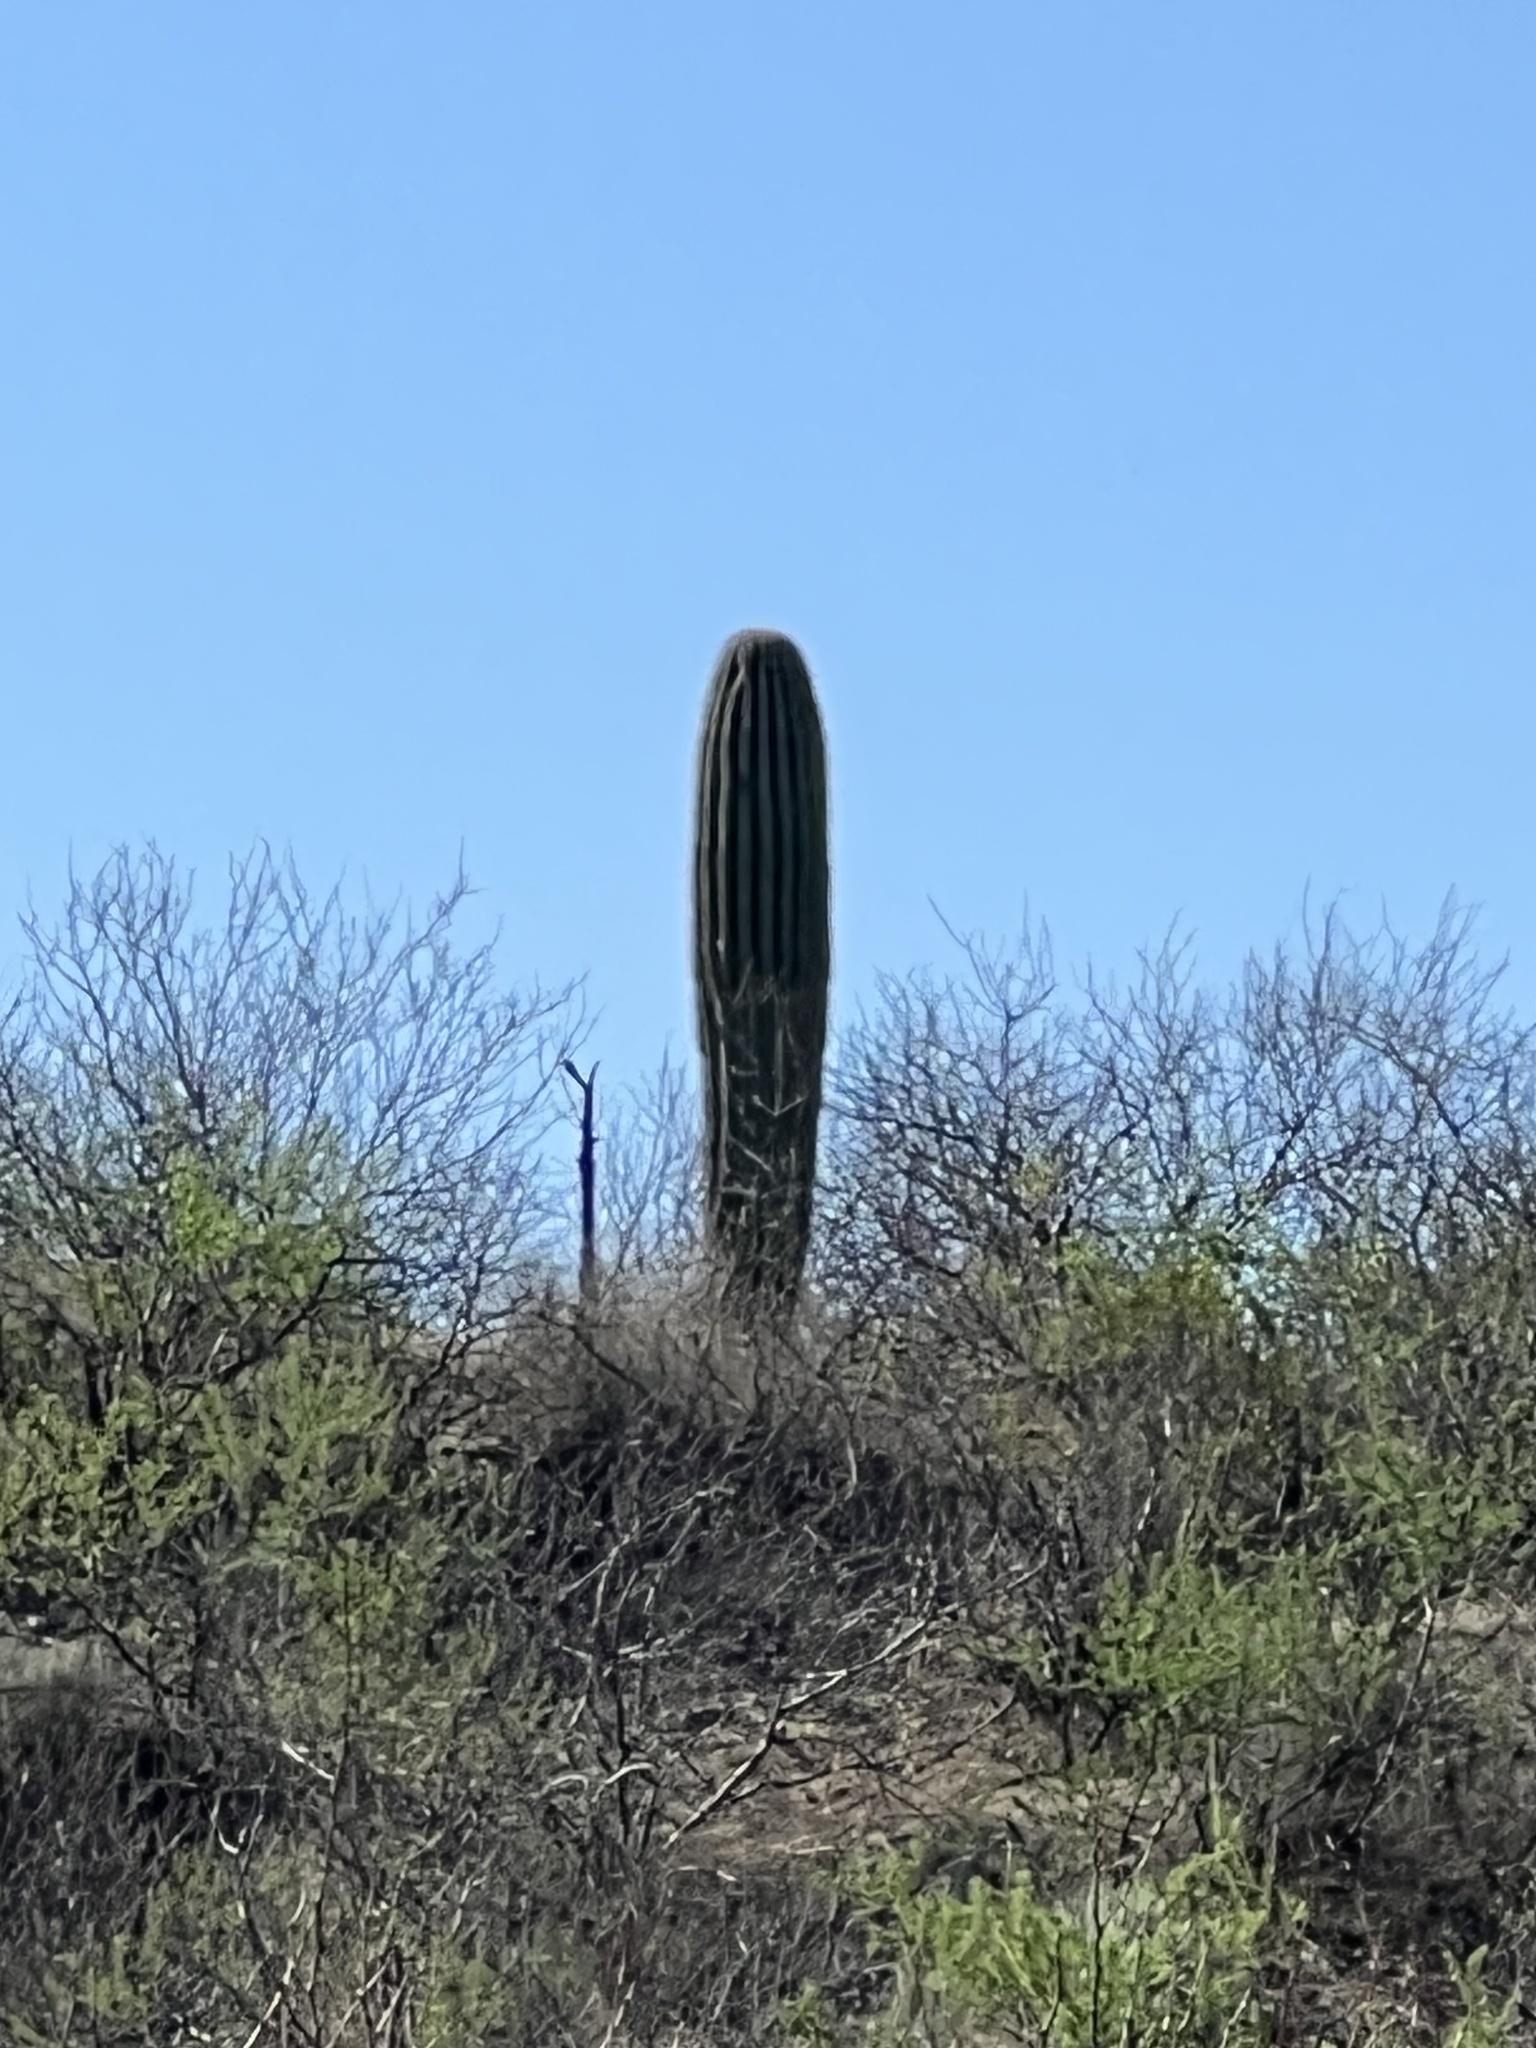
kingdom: Plantae
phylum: Tracheophyta
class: Magnoliopsida
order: Caryophyllales
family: Cactaceae
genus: Carnegiea
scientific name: Carnegiea gigantea
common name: Saguaro
